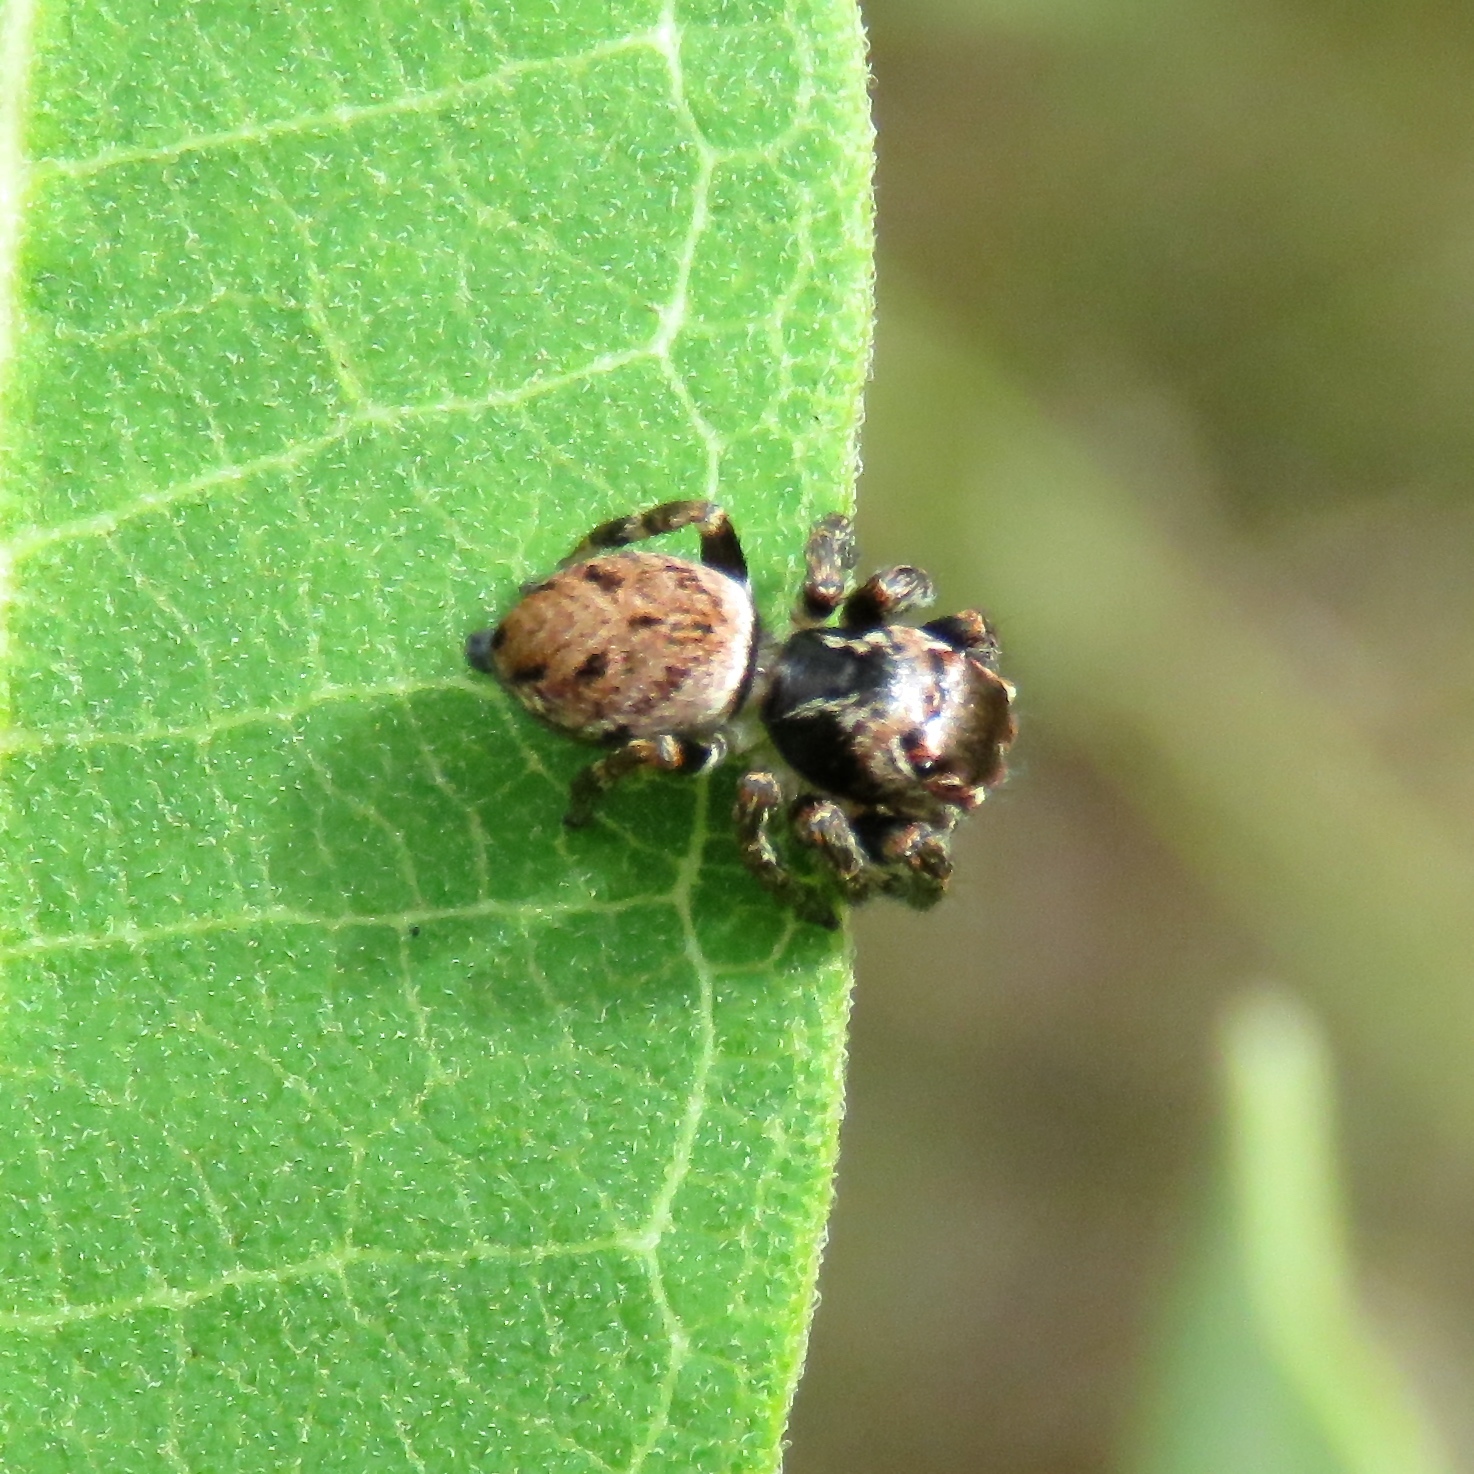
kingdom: Animalia
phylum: Arthropoda
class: Arachnida
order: Araneae
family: Salticidae
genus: Evarcha
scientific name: Evarcha hoyi
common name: Hoy's jumping spider
